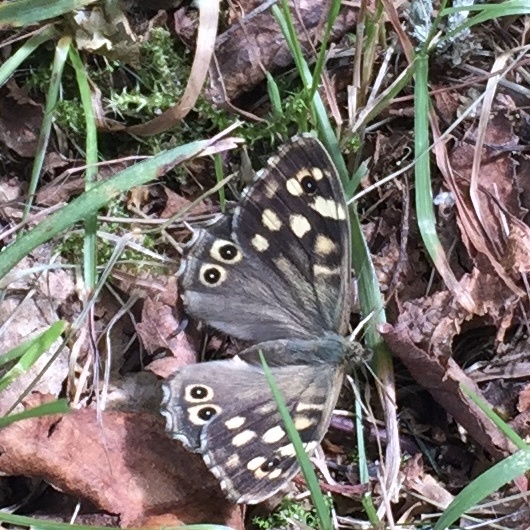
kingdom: Animalia
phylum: Arthropoda
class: Insecta
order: Lepidoptera
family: Nymphalidae
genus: Pararge
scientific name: Pararge aegeria
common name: Speckled wood
